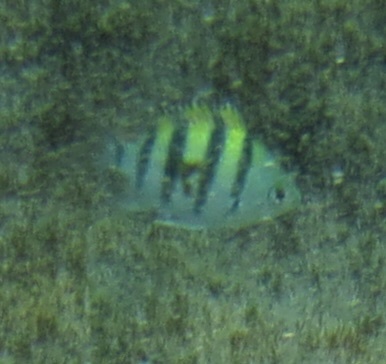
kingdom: Animalia
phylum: Chordata
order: Perciformes
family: Pomacentridae
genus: Abudefduf
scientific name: Abudefduf vaigiensis
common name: Indo-pacific sergeant
